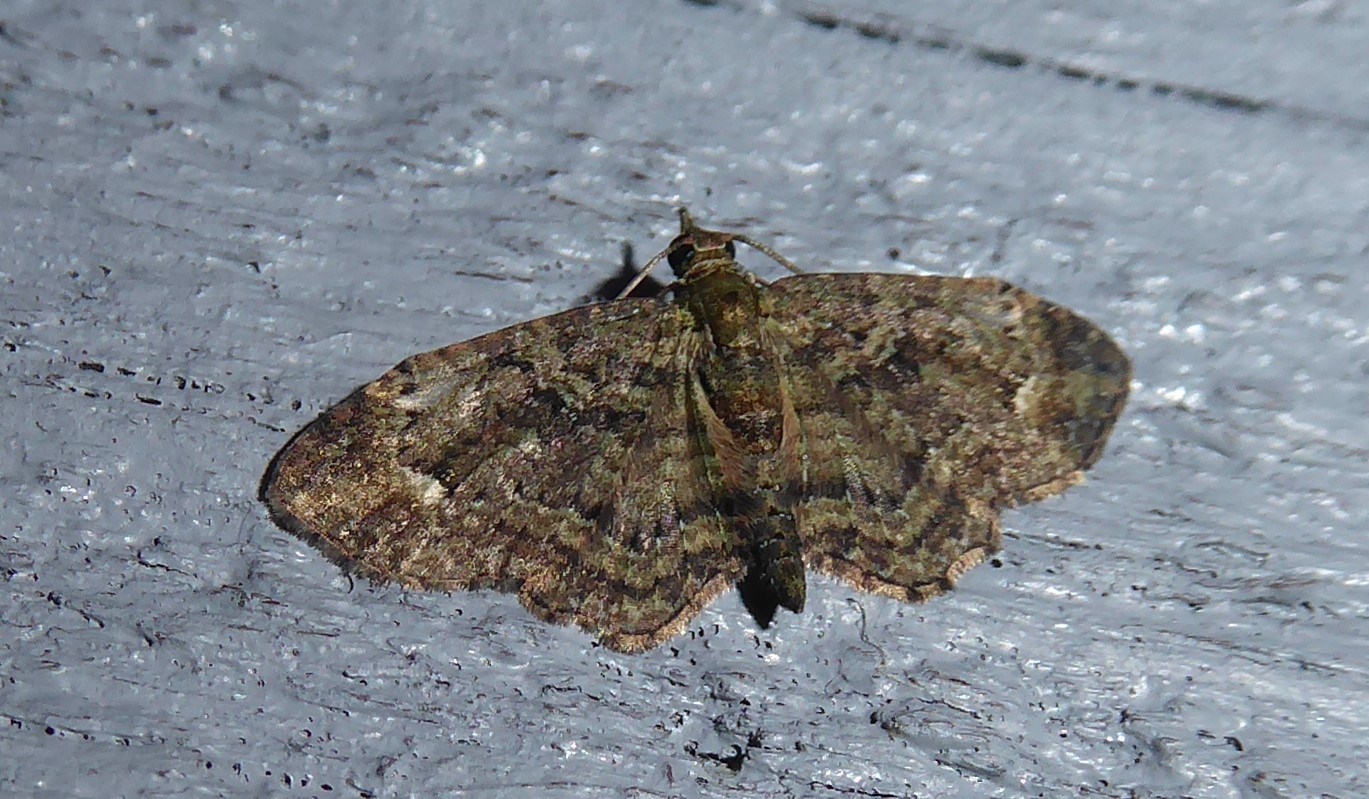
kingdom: Animalia
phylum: Arthropoda
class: Insecta
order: Lepidoptera
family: Geometridae
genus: Pasiphilodes
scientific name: Pasiphilodes testulata
